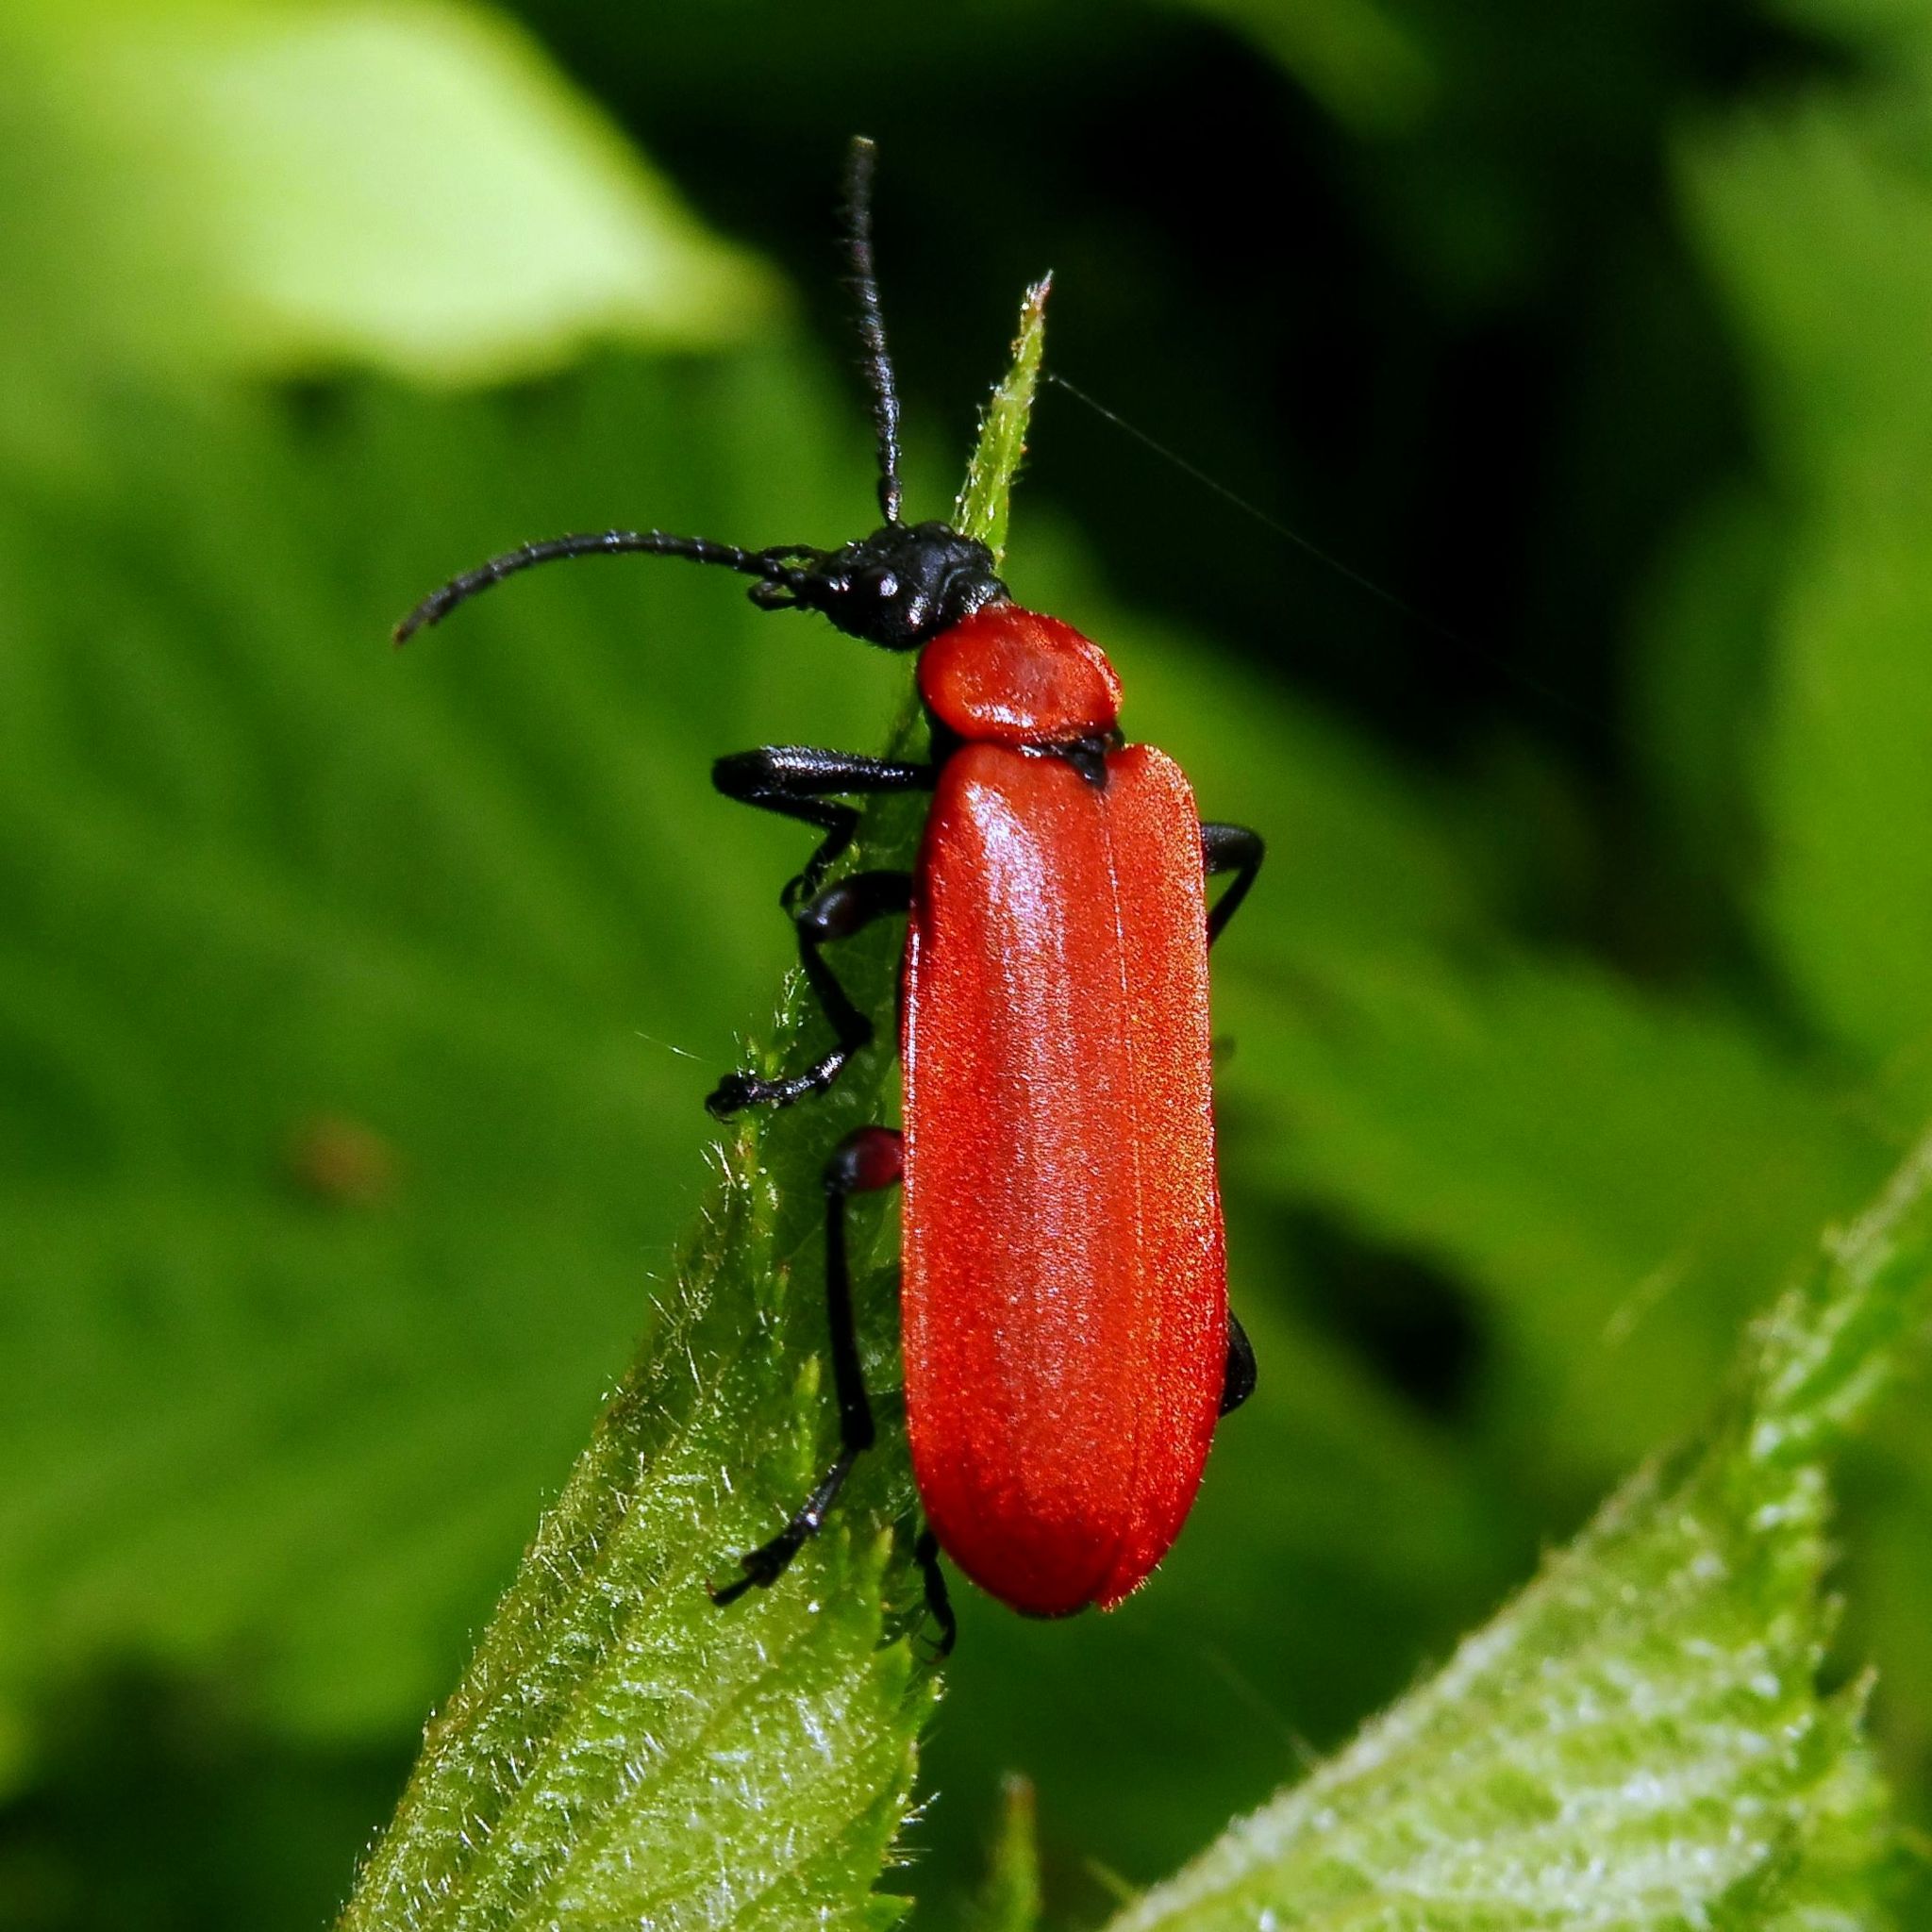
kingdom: Animalia
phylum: Arthropoda
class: Insecta
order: Coleoptera
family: Pyrochroidae
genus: Pyrochroa
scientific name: Pyrochroa coccinea
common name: Black-headed cardinal beetle
